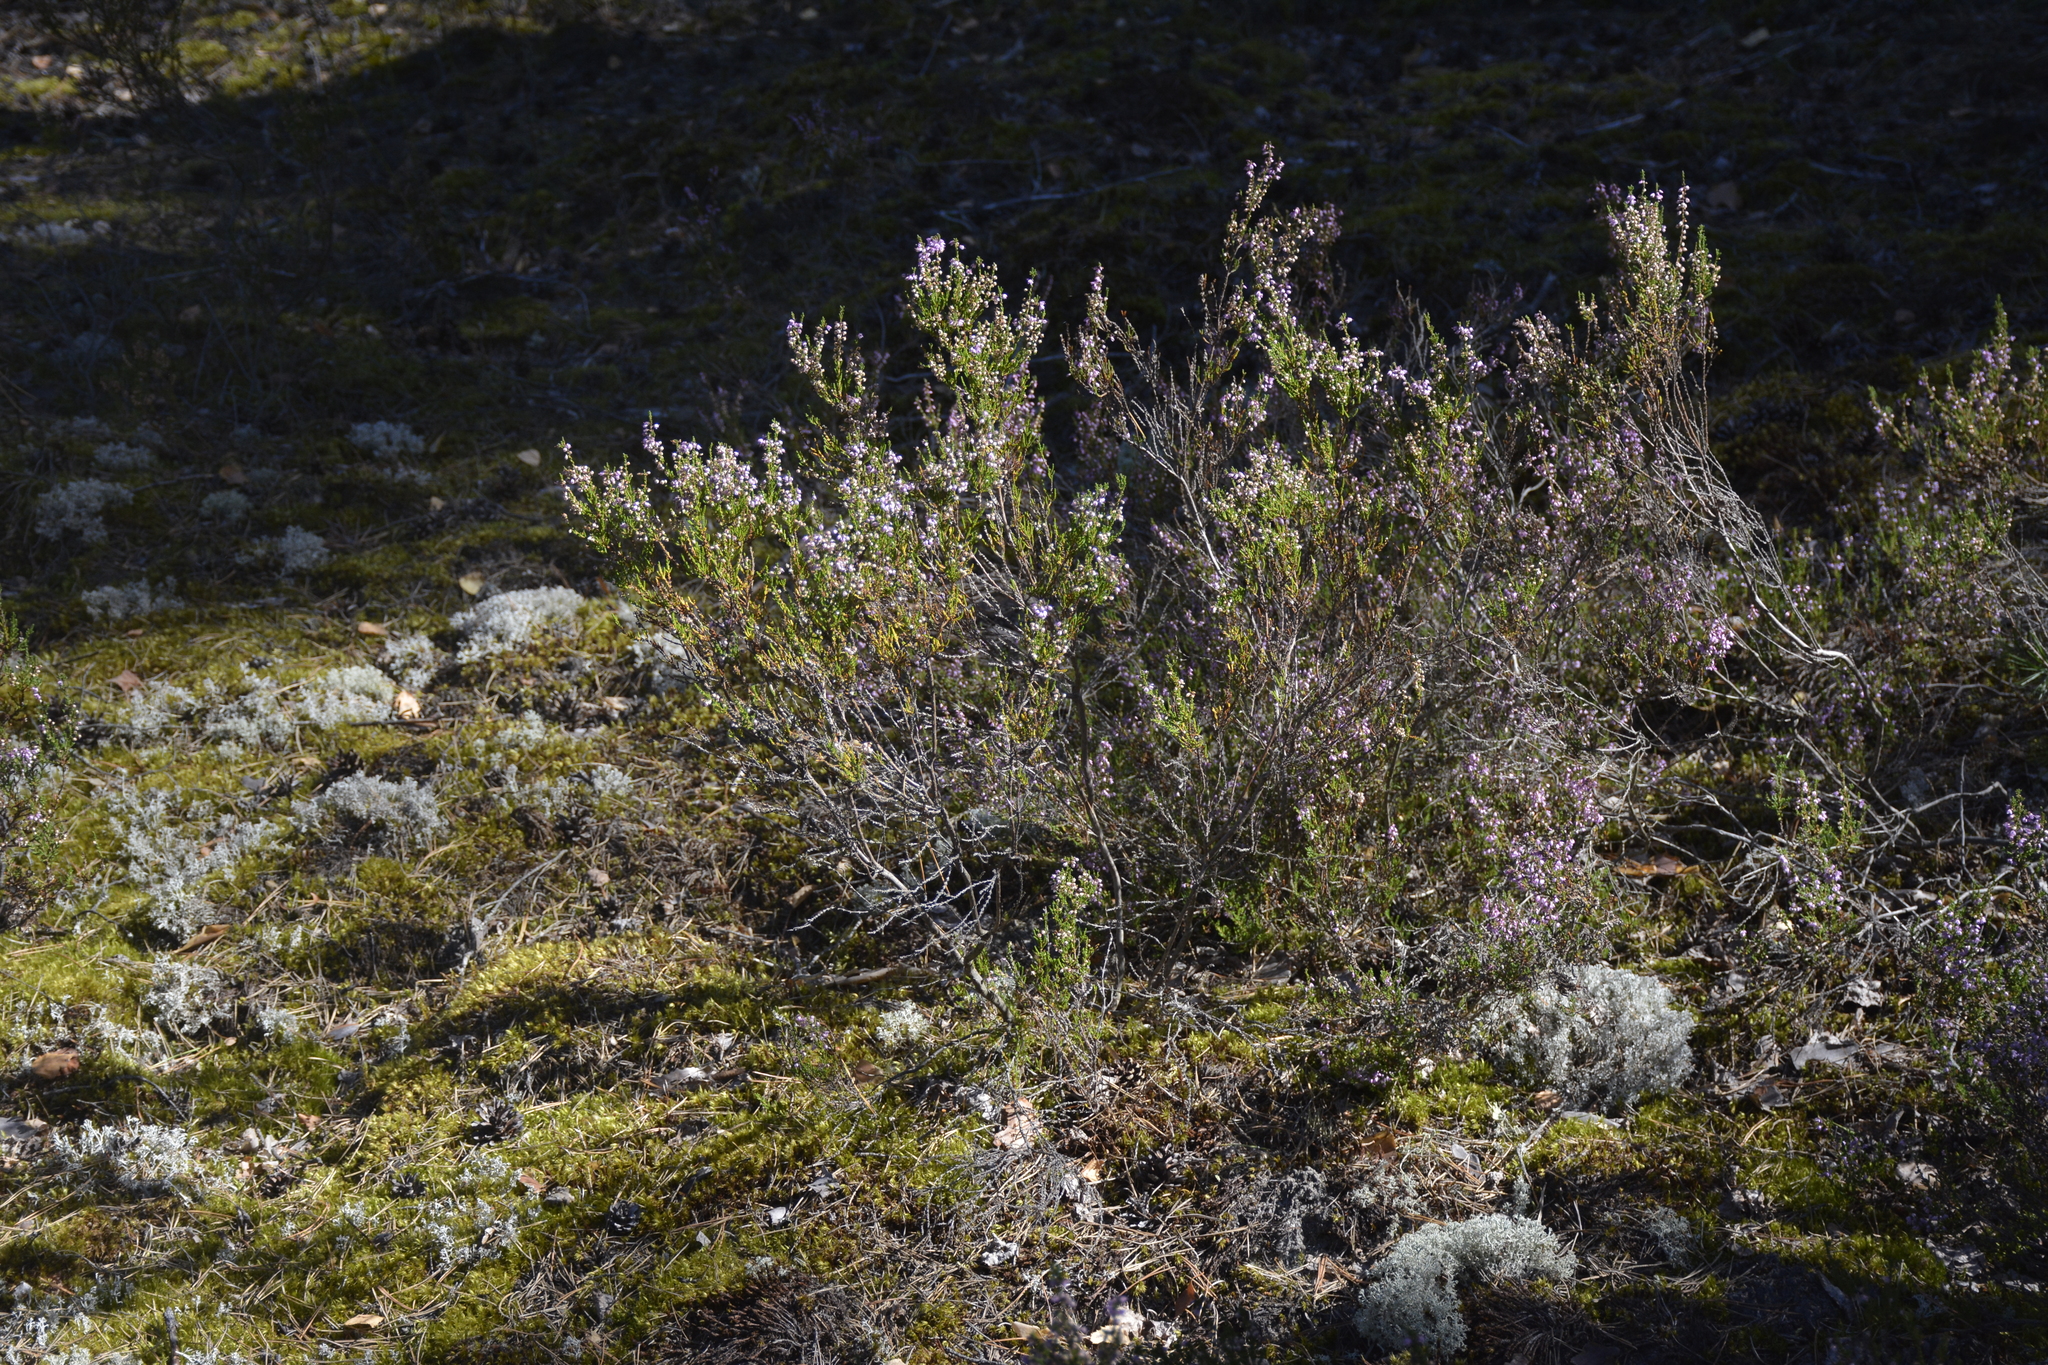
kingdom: Plantae
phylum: Tracheophyta
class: Magnoliopsida
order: Ericales
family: Ericaceae
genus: Calluna
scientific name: Calluna vulgaris
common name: Heather
